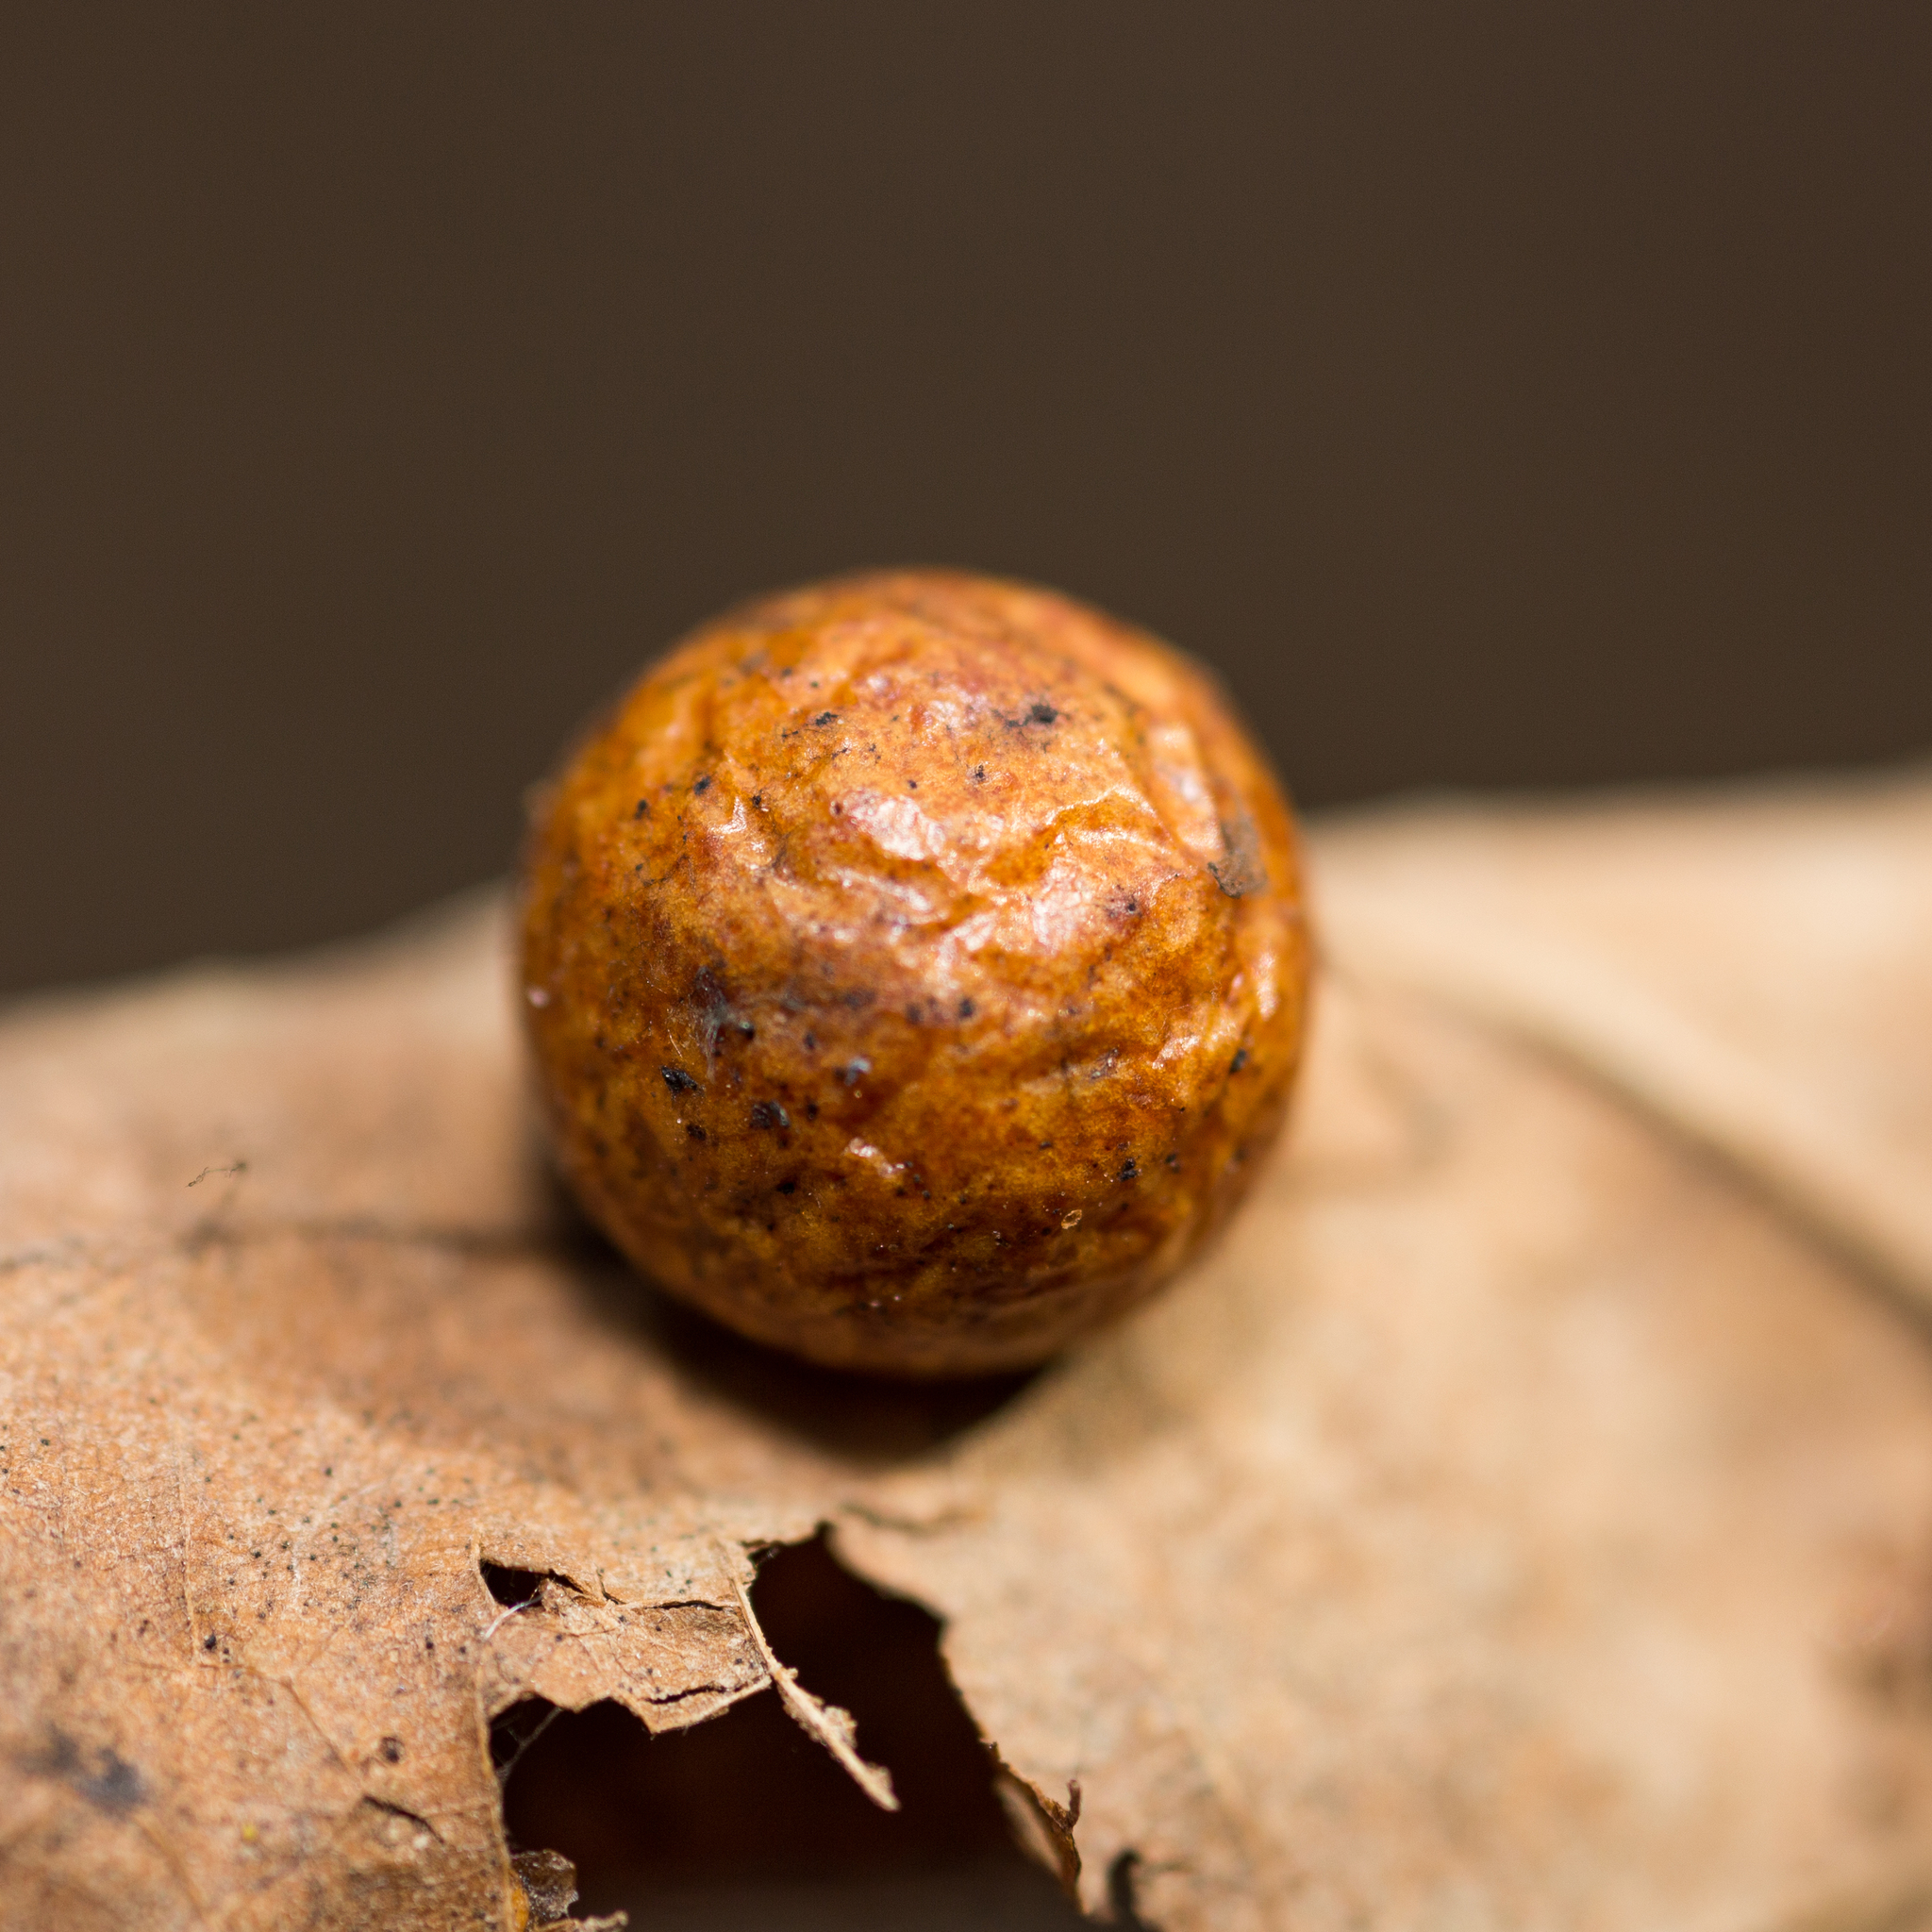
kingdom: Animalia
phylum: Arthropoda
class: Insecta
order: Hymenoptera
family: Cynipidae
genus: Cynips
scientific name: Cynips quercusfolii
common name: Cherry gall
